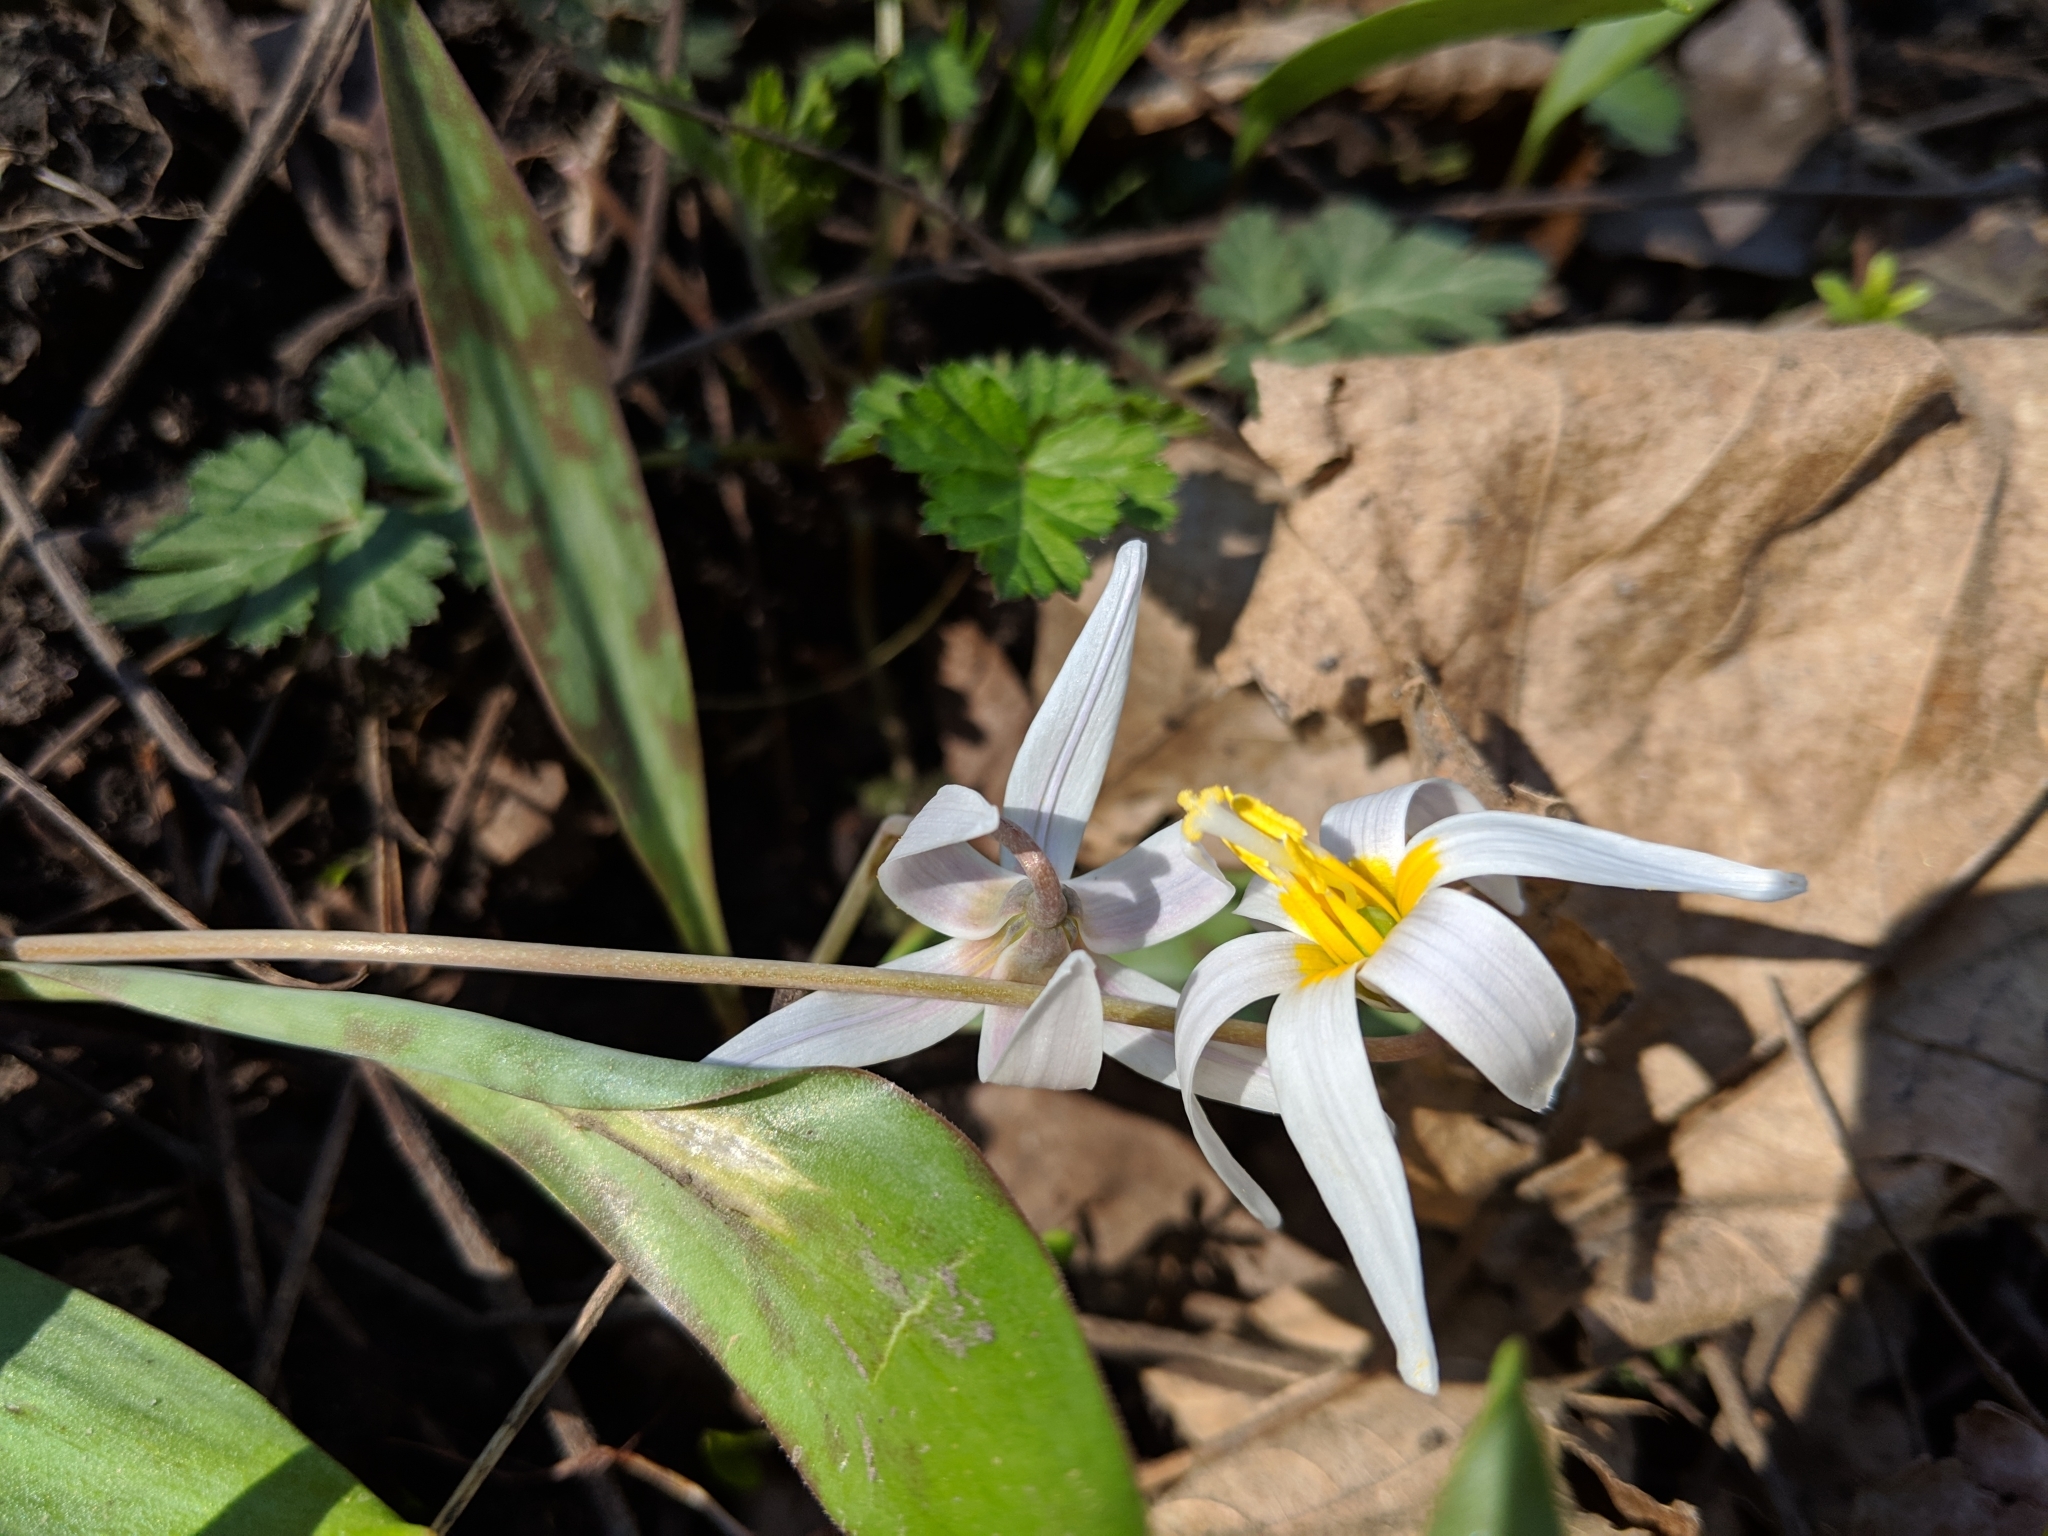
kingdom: Plantae
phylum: Tracheophyta
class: Liliopsida
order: Liliales
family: Liliaceae
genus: Erythronium
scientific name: Erythronium albidum
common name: White trout-lily
